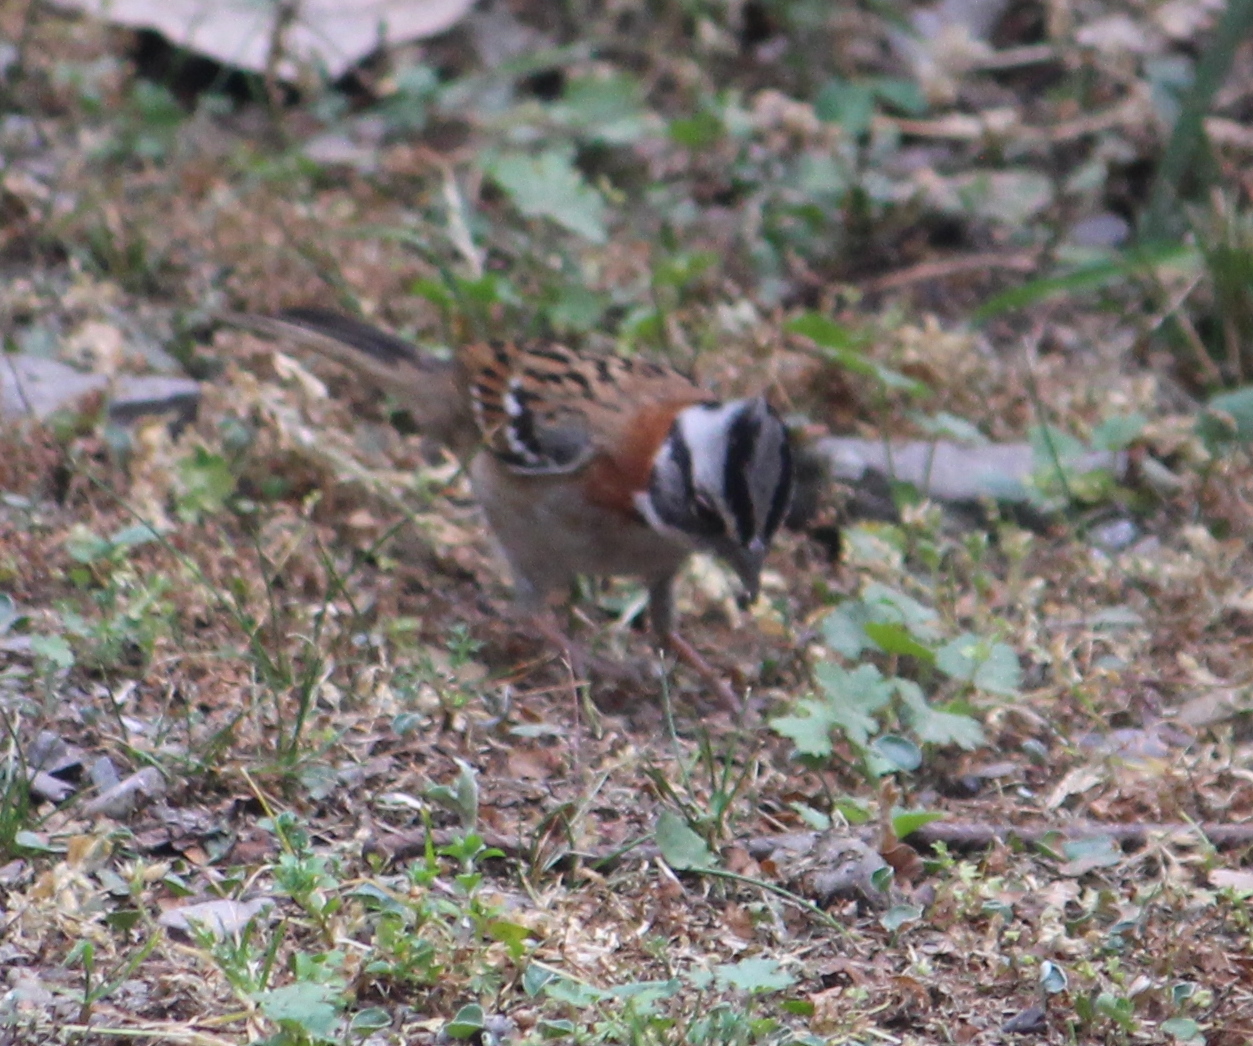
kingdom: Animalia
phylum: Chordata
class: Aves
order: Passeriformes
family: Passerellidae
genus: Zonotrichia
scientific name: Zonotrichia capensis
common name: Rufous-collared sparrow
